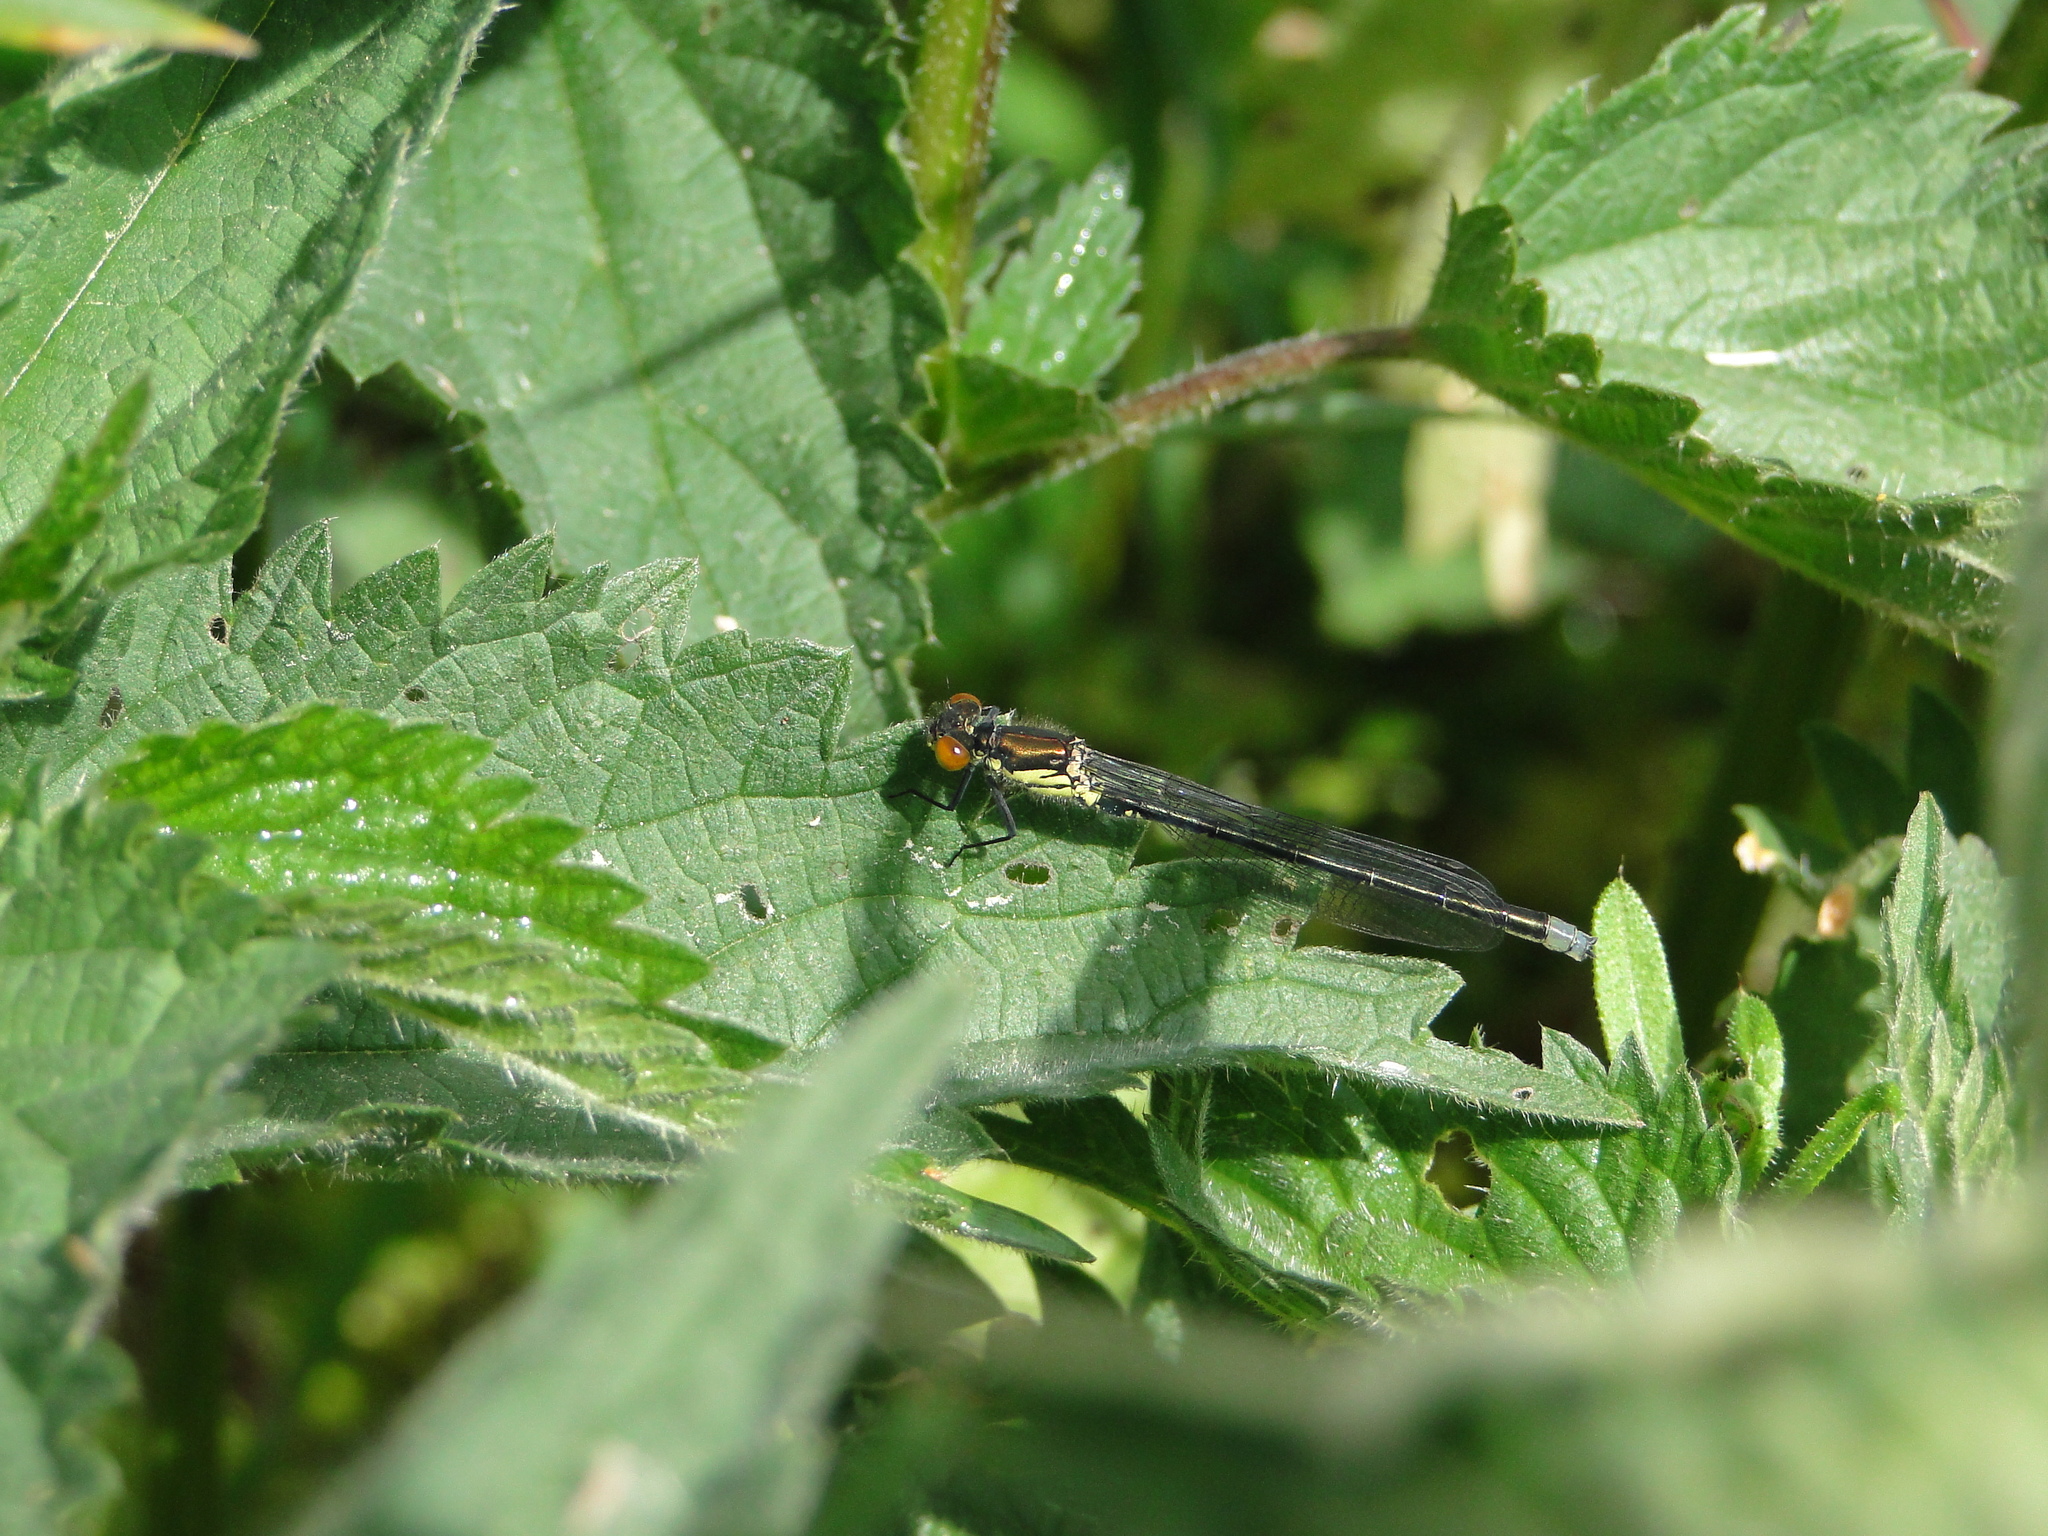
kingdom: Animalia
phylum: Arthropoda
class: Insecta
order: Odonata
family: Coenagrionidae
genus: Erythromma
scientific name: Erythromma najas
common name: Red-eyed damselfly
